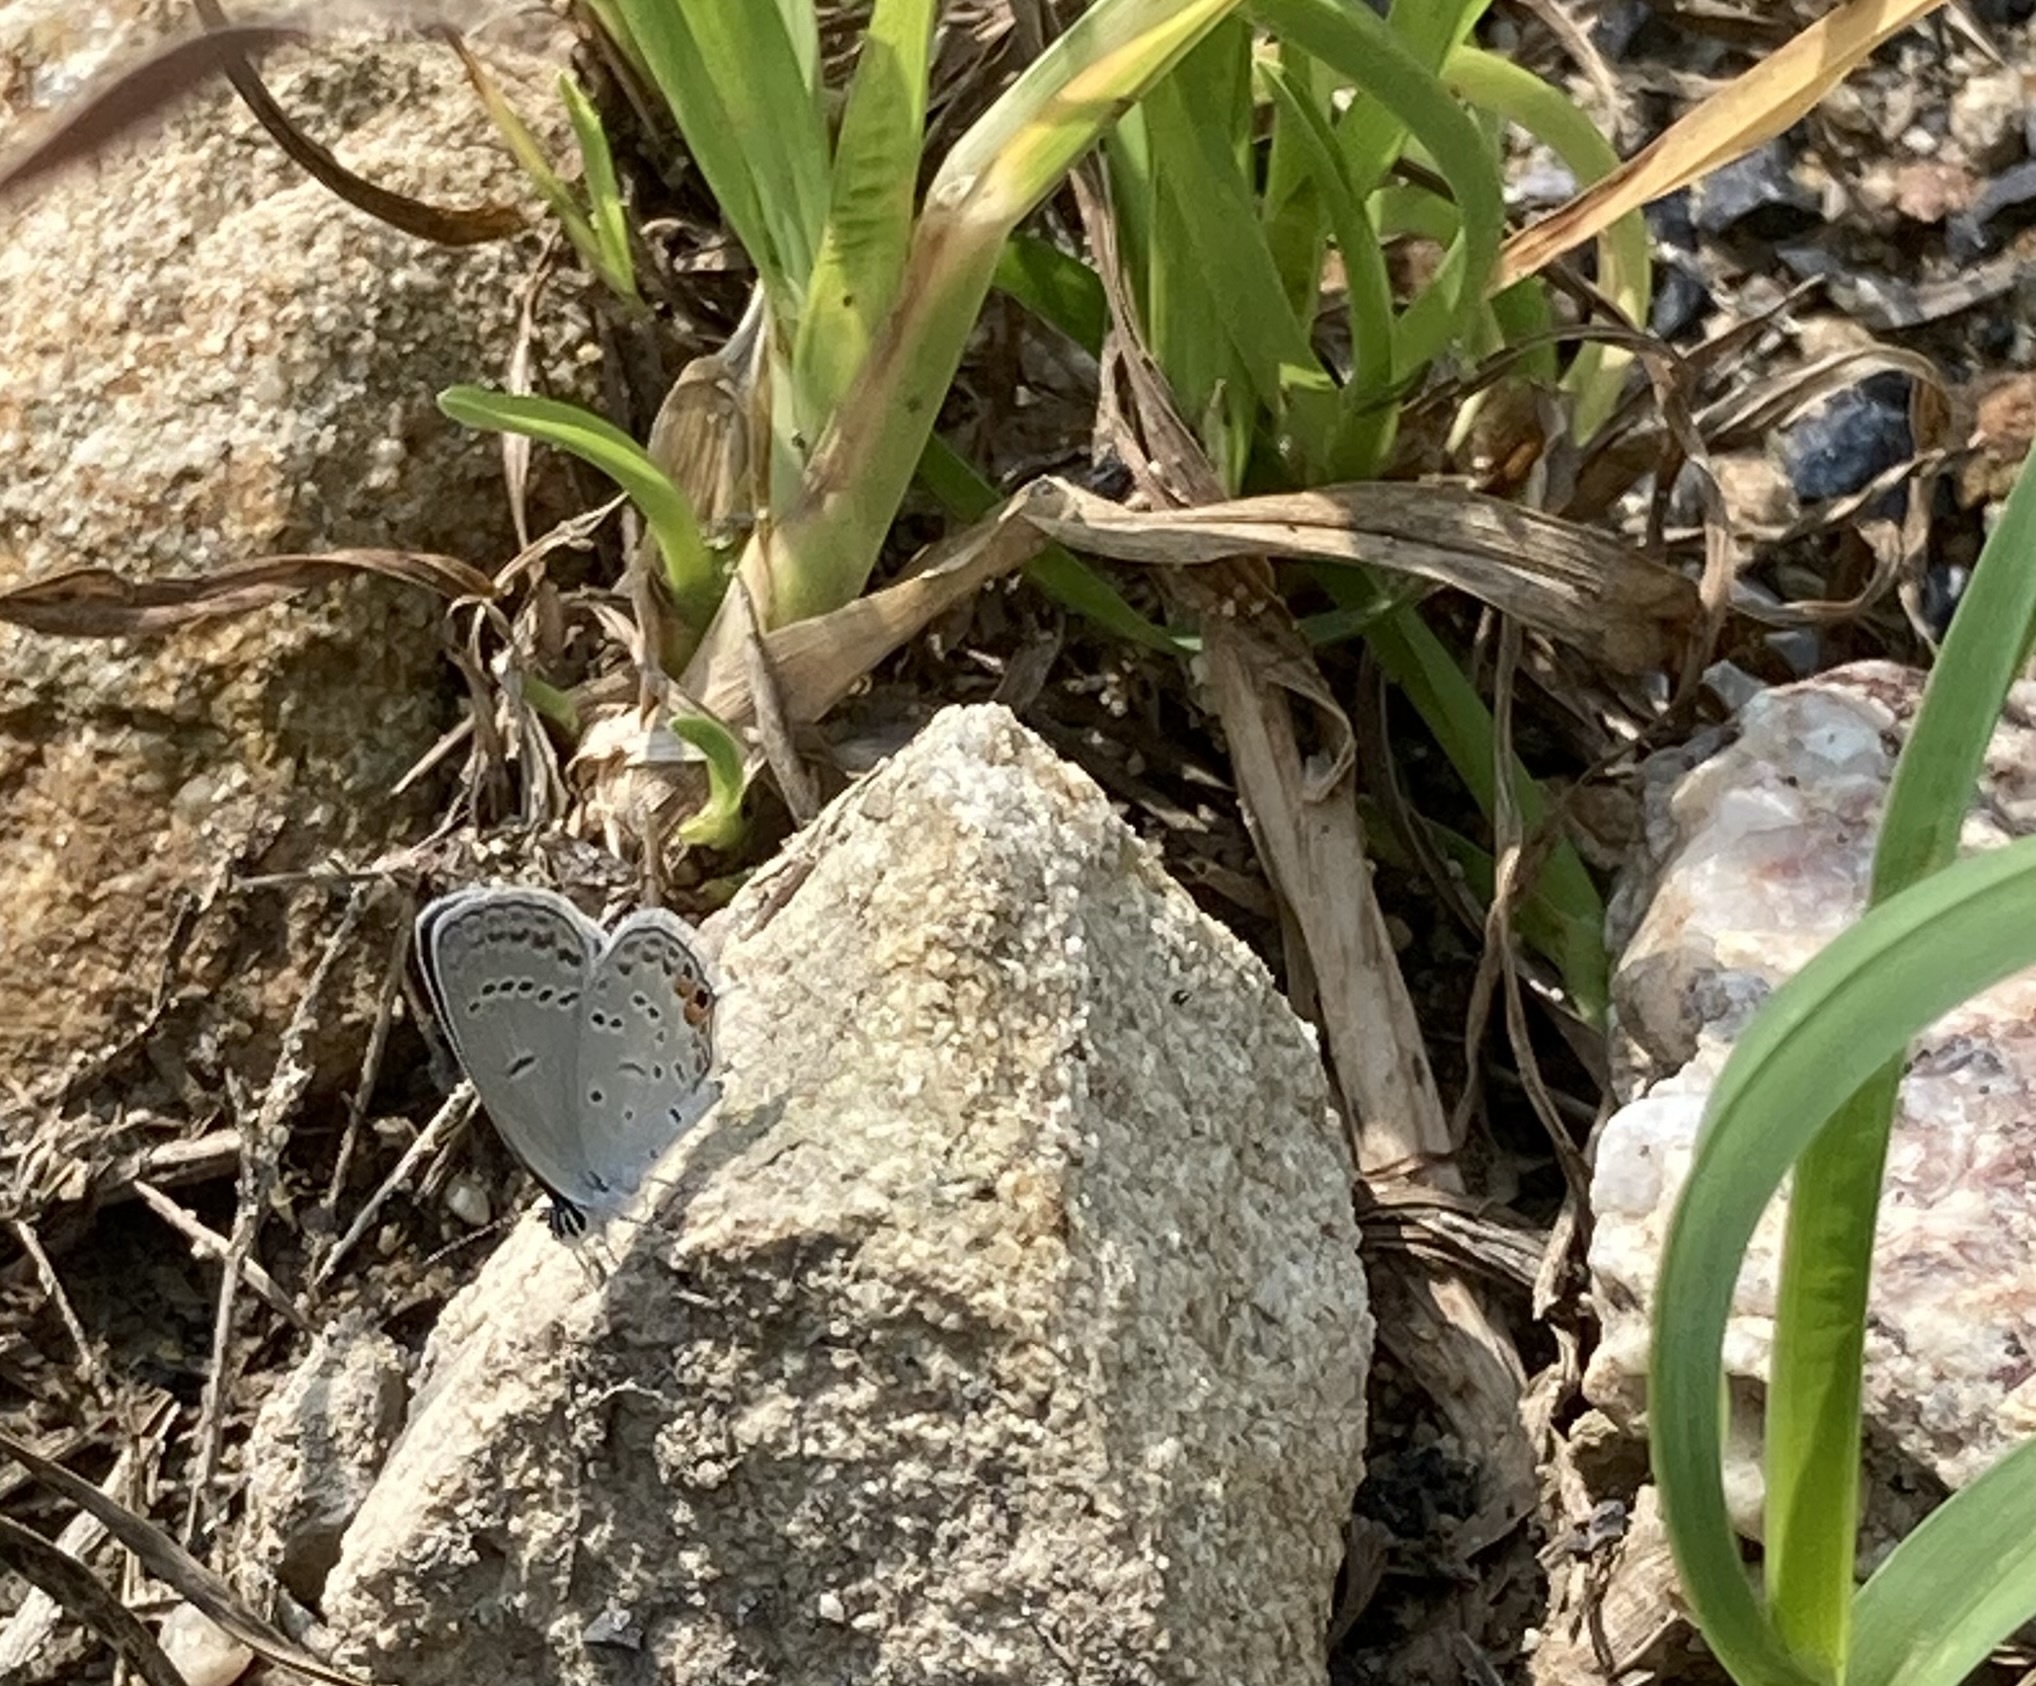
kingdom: Animalia
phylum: Arthropoda
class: Insecta
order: Lepidoptera
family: Lycaenidae
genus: Elkalyce
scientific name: Elkalyce comyntas
